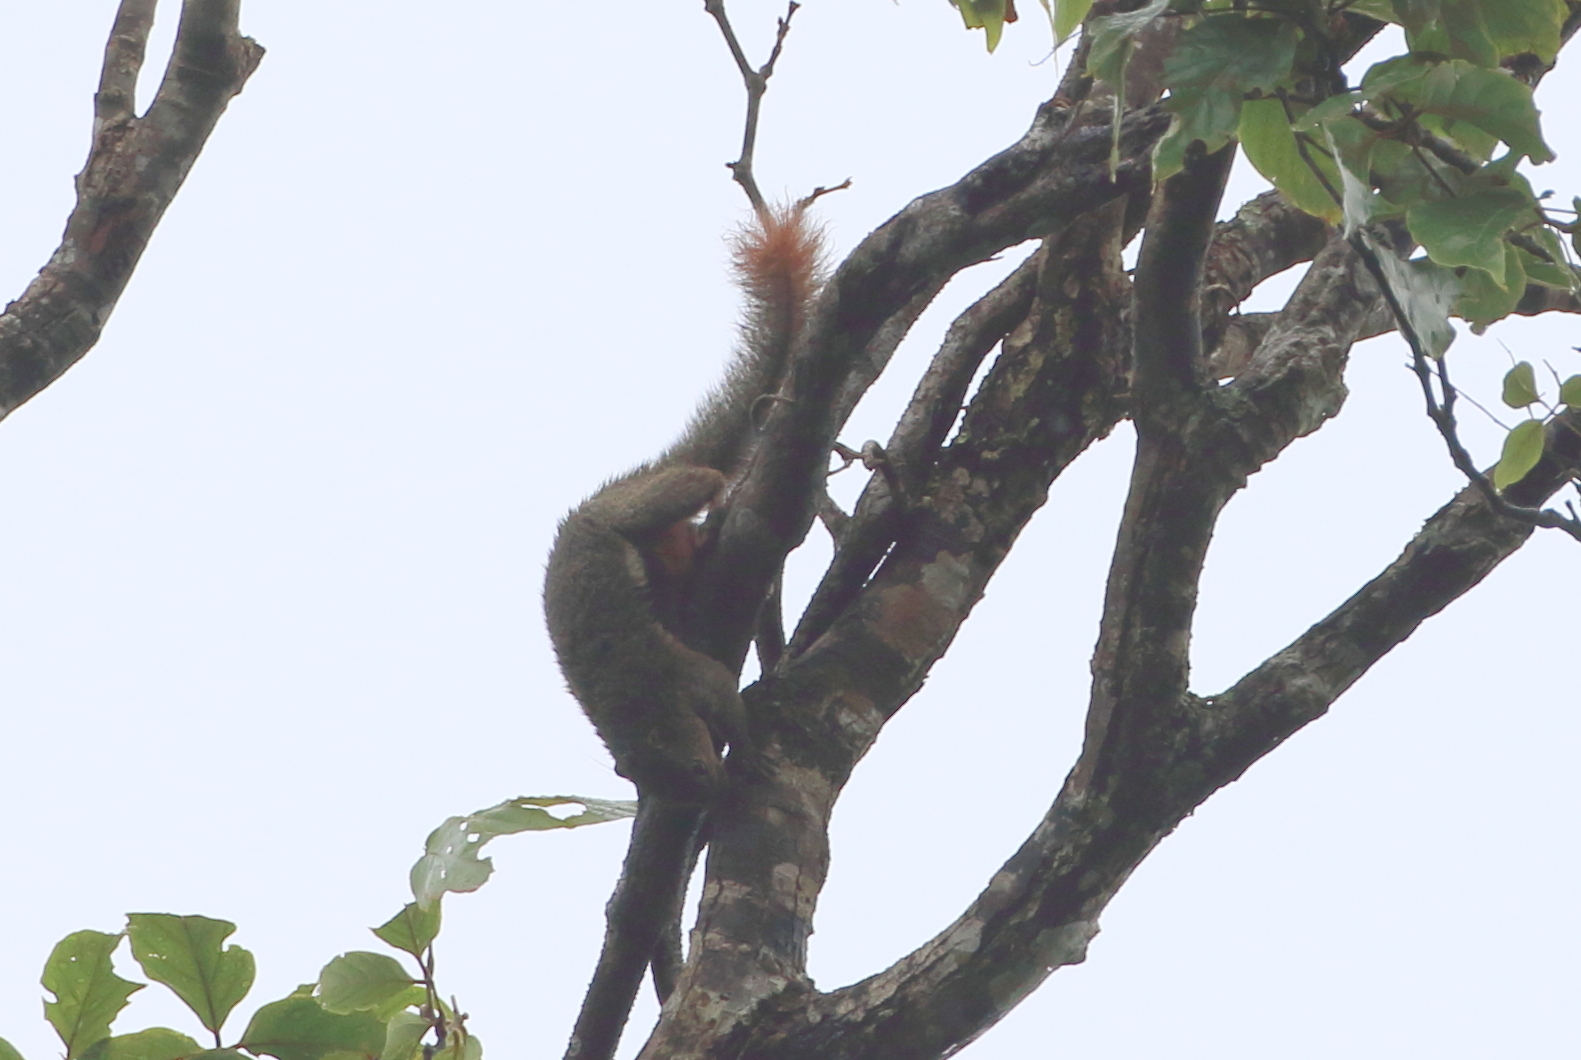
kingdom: Animalia
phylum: Chordata
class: Mammalia
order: Rodentia
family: Sciuridae
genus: Callosciurus
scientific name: Callosciurus notatus
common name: Plantain squirrel
